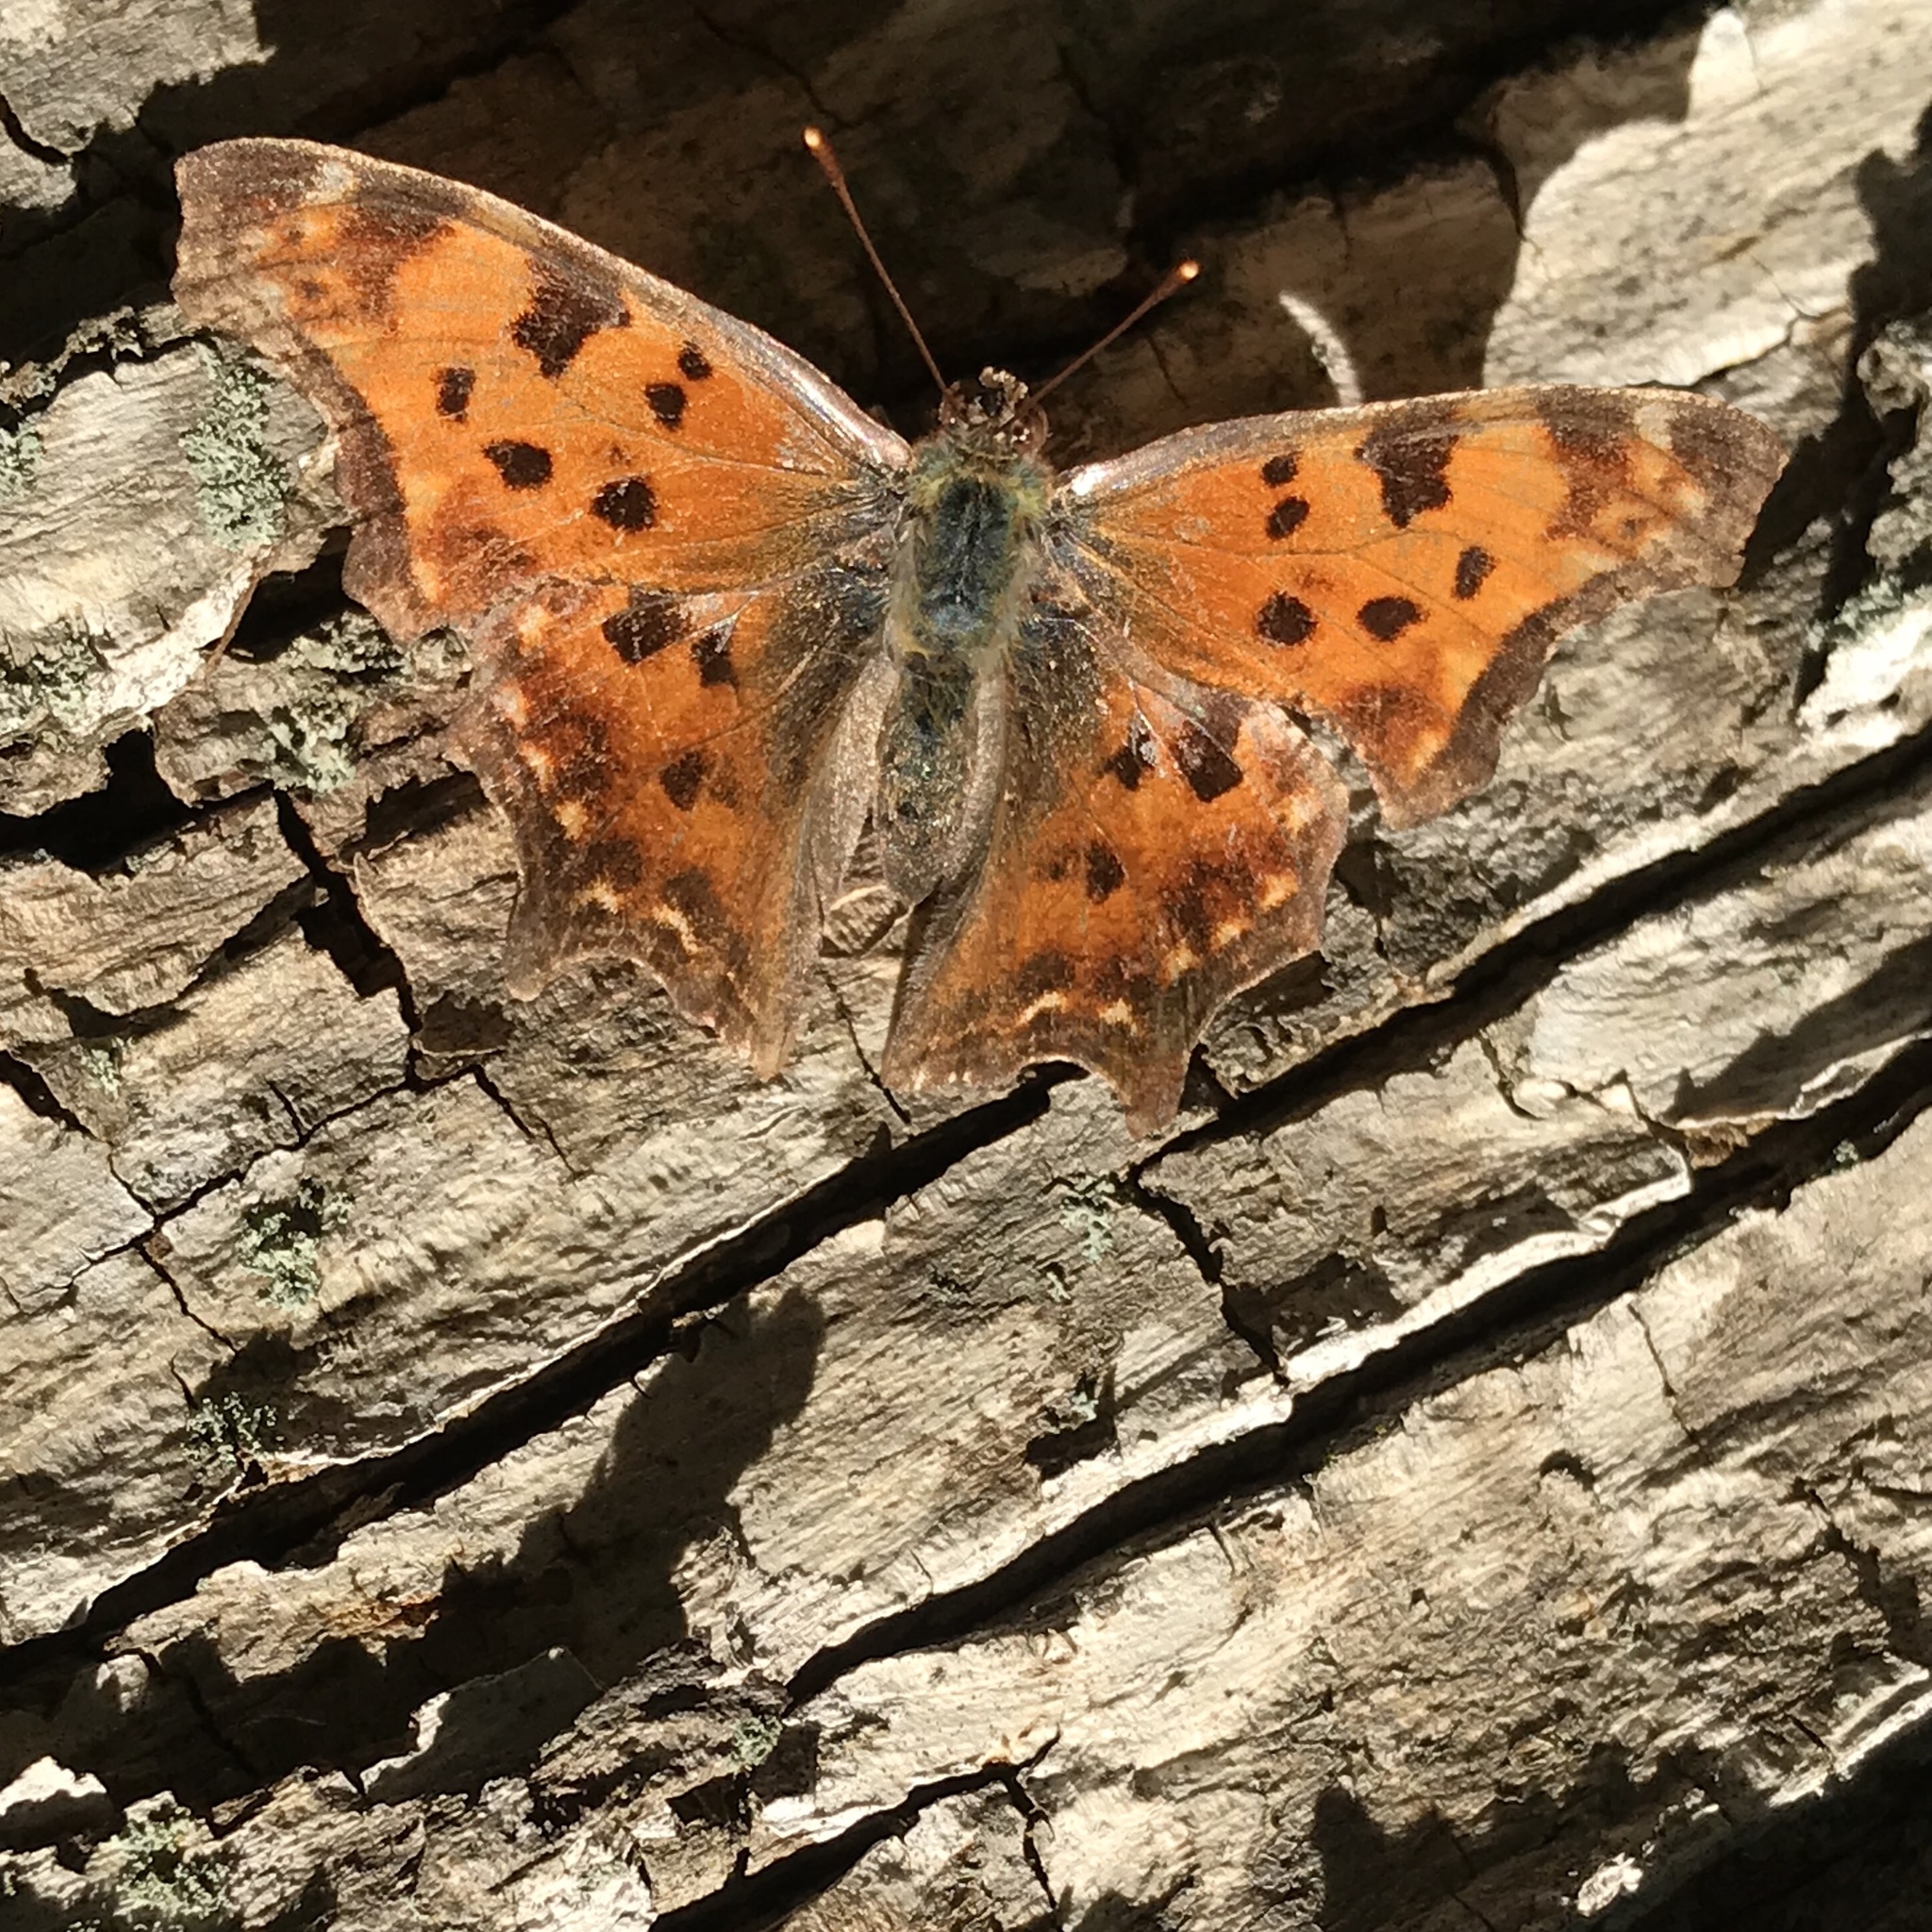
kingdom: Animalia
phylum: Arthropoda
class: Insecta
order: Lepidoptera
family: Nymphalidae
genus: Polygonia
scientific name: Polygonia comma
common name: Eastern comma
